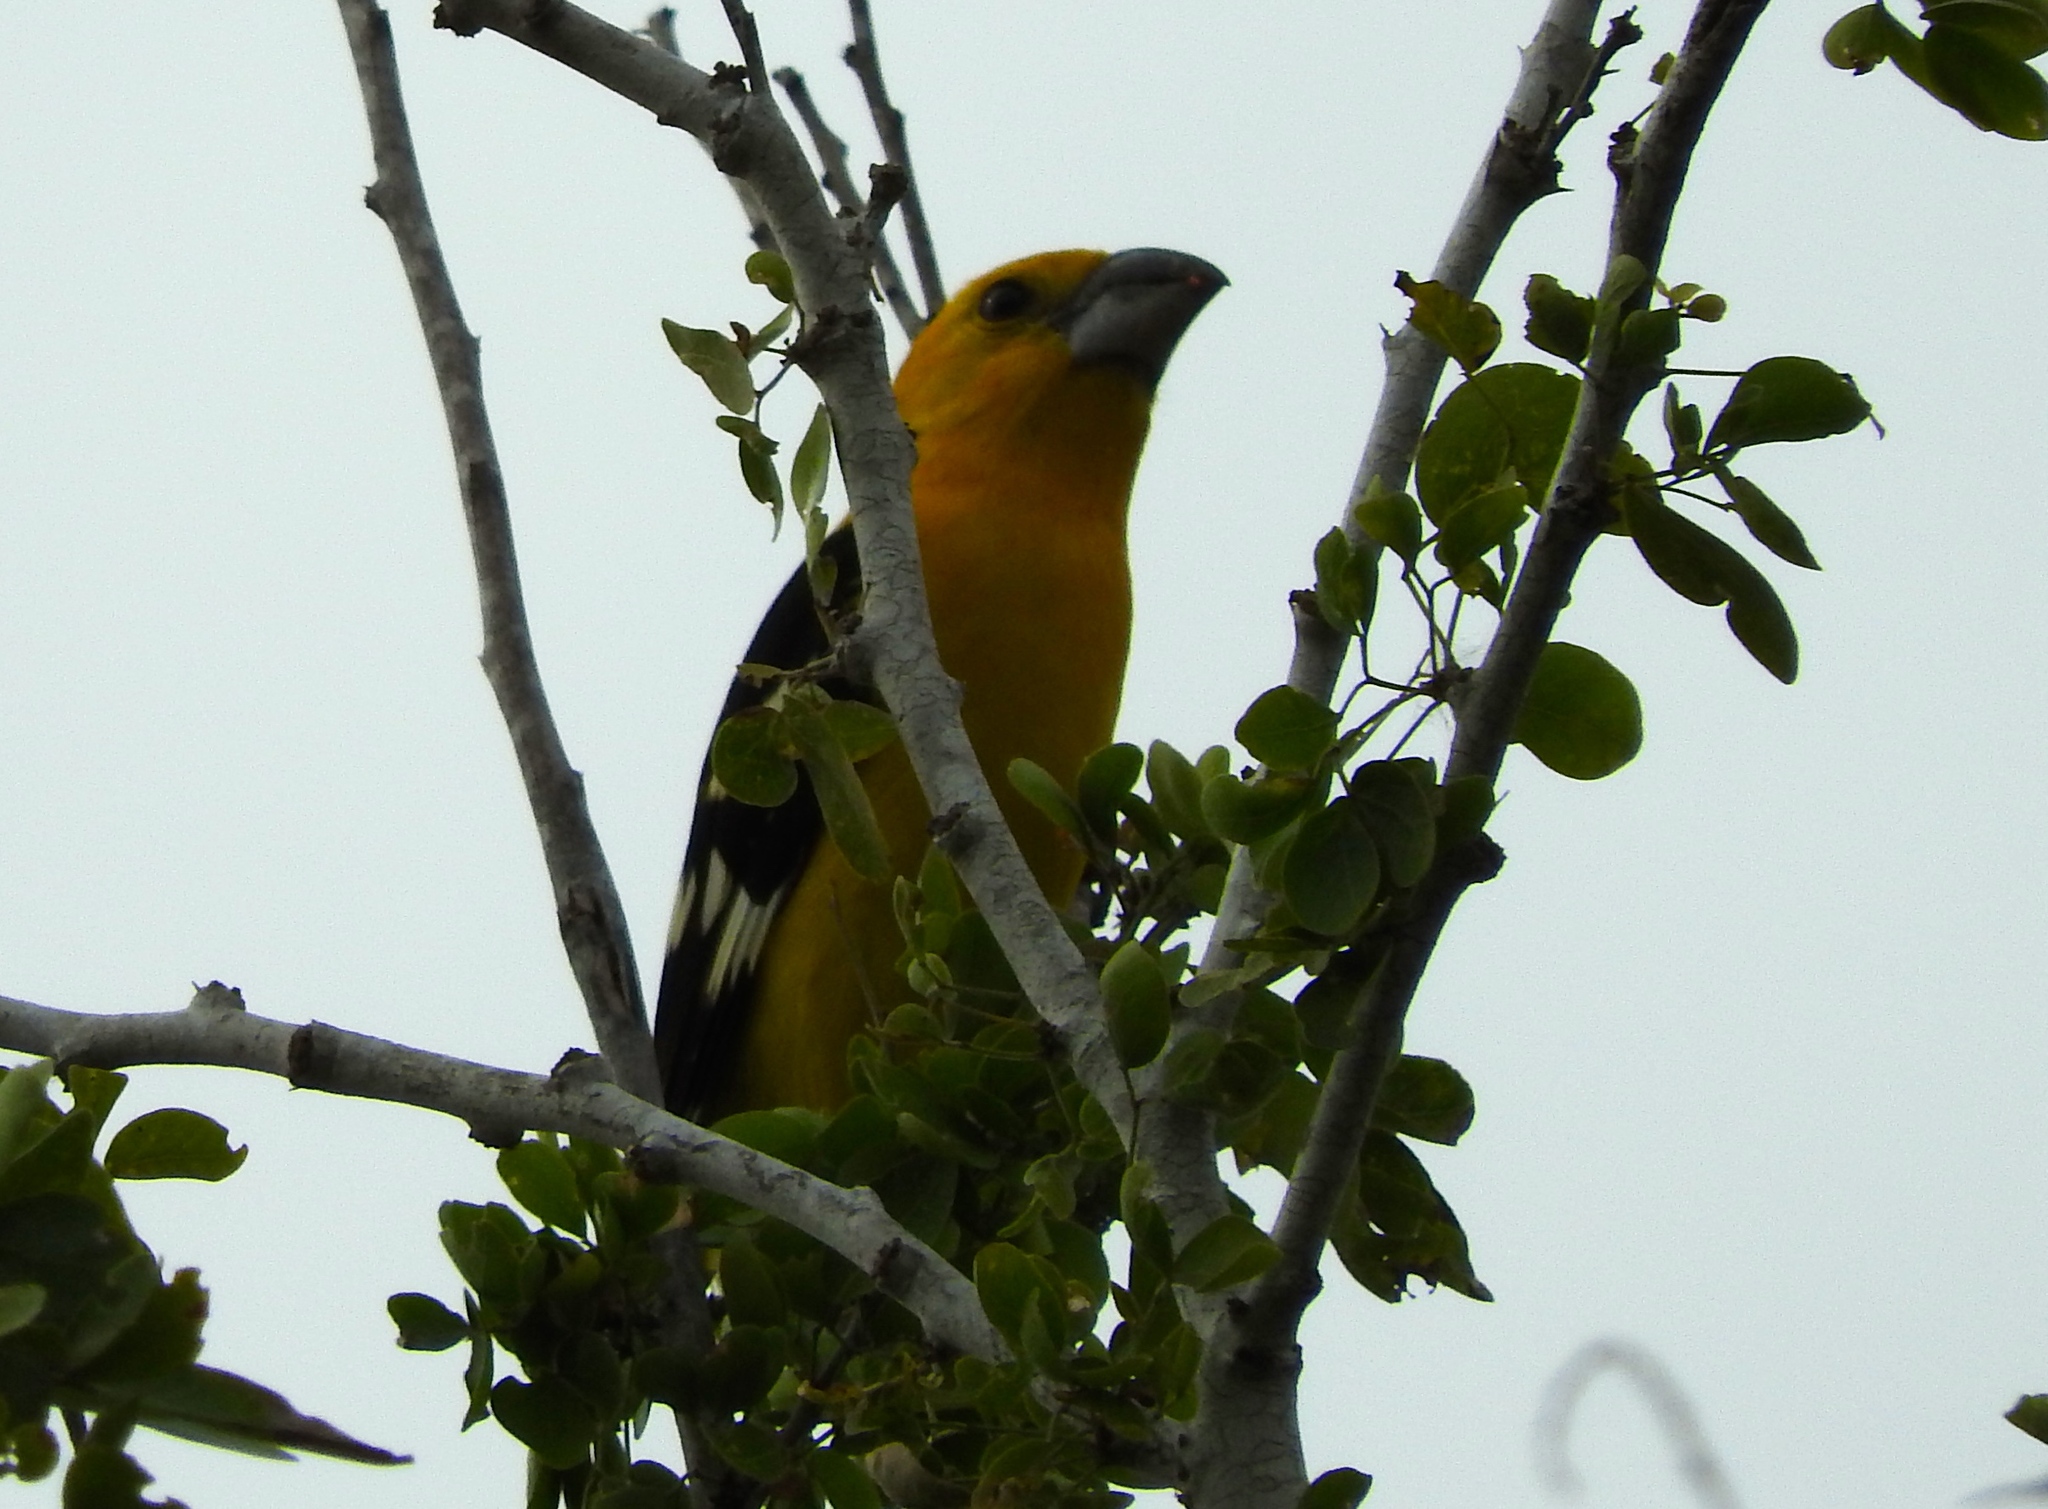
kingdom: Animalia
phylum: Chordata
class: Aves
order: Passeriformes
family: Cardinalidae
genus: Pheucticus
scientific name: Pheucticus chrysopeplus
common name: Yellow grosbeak
